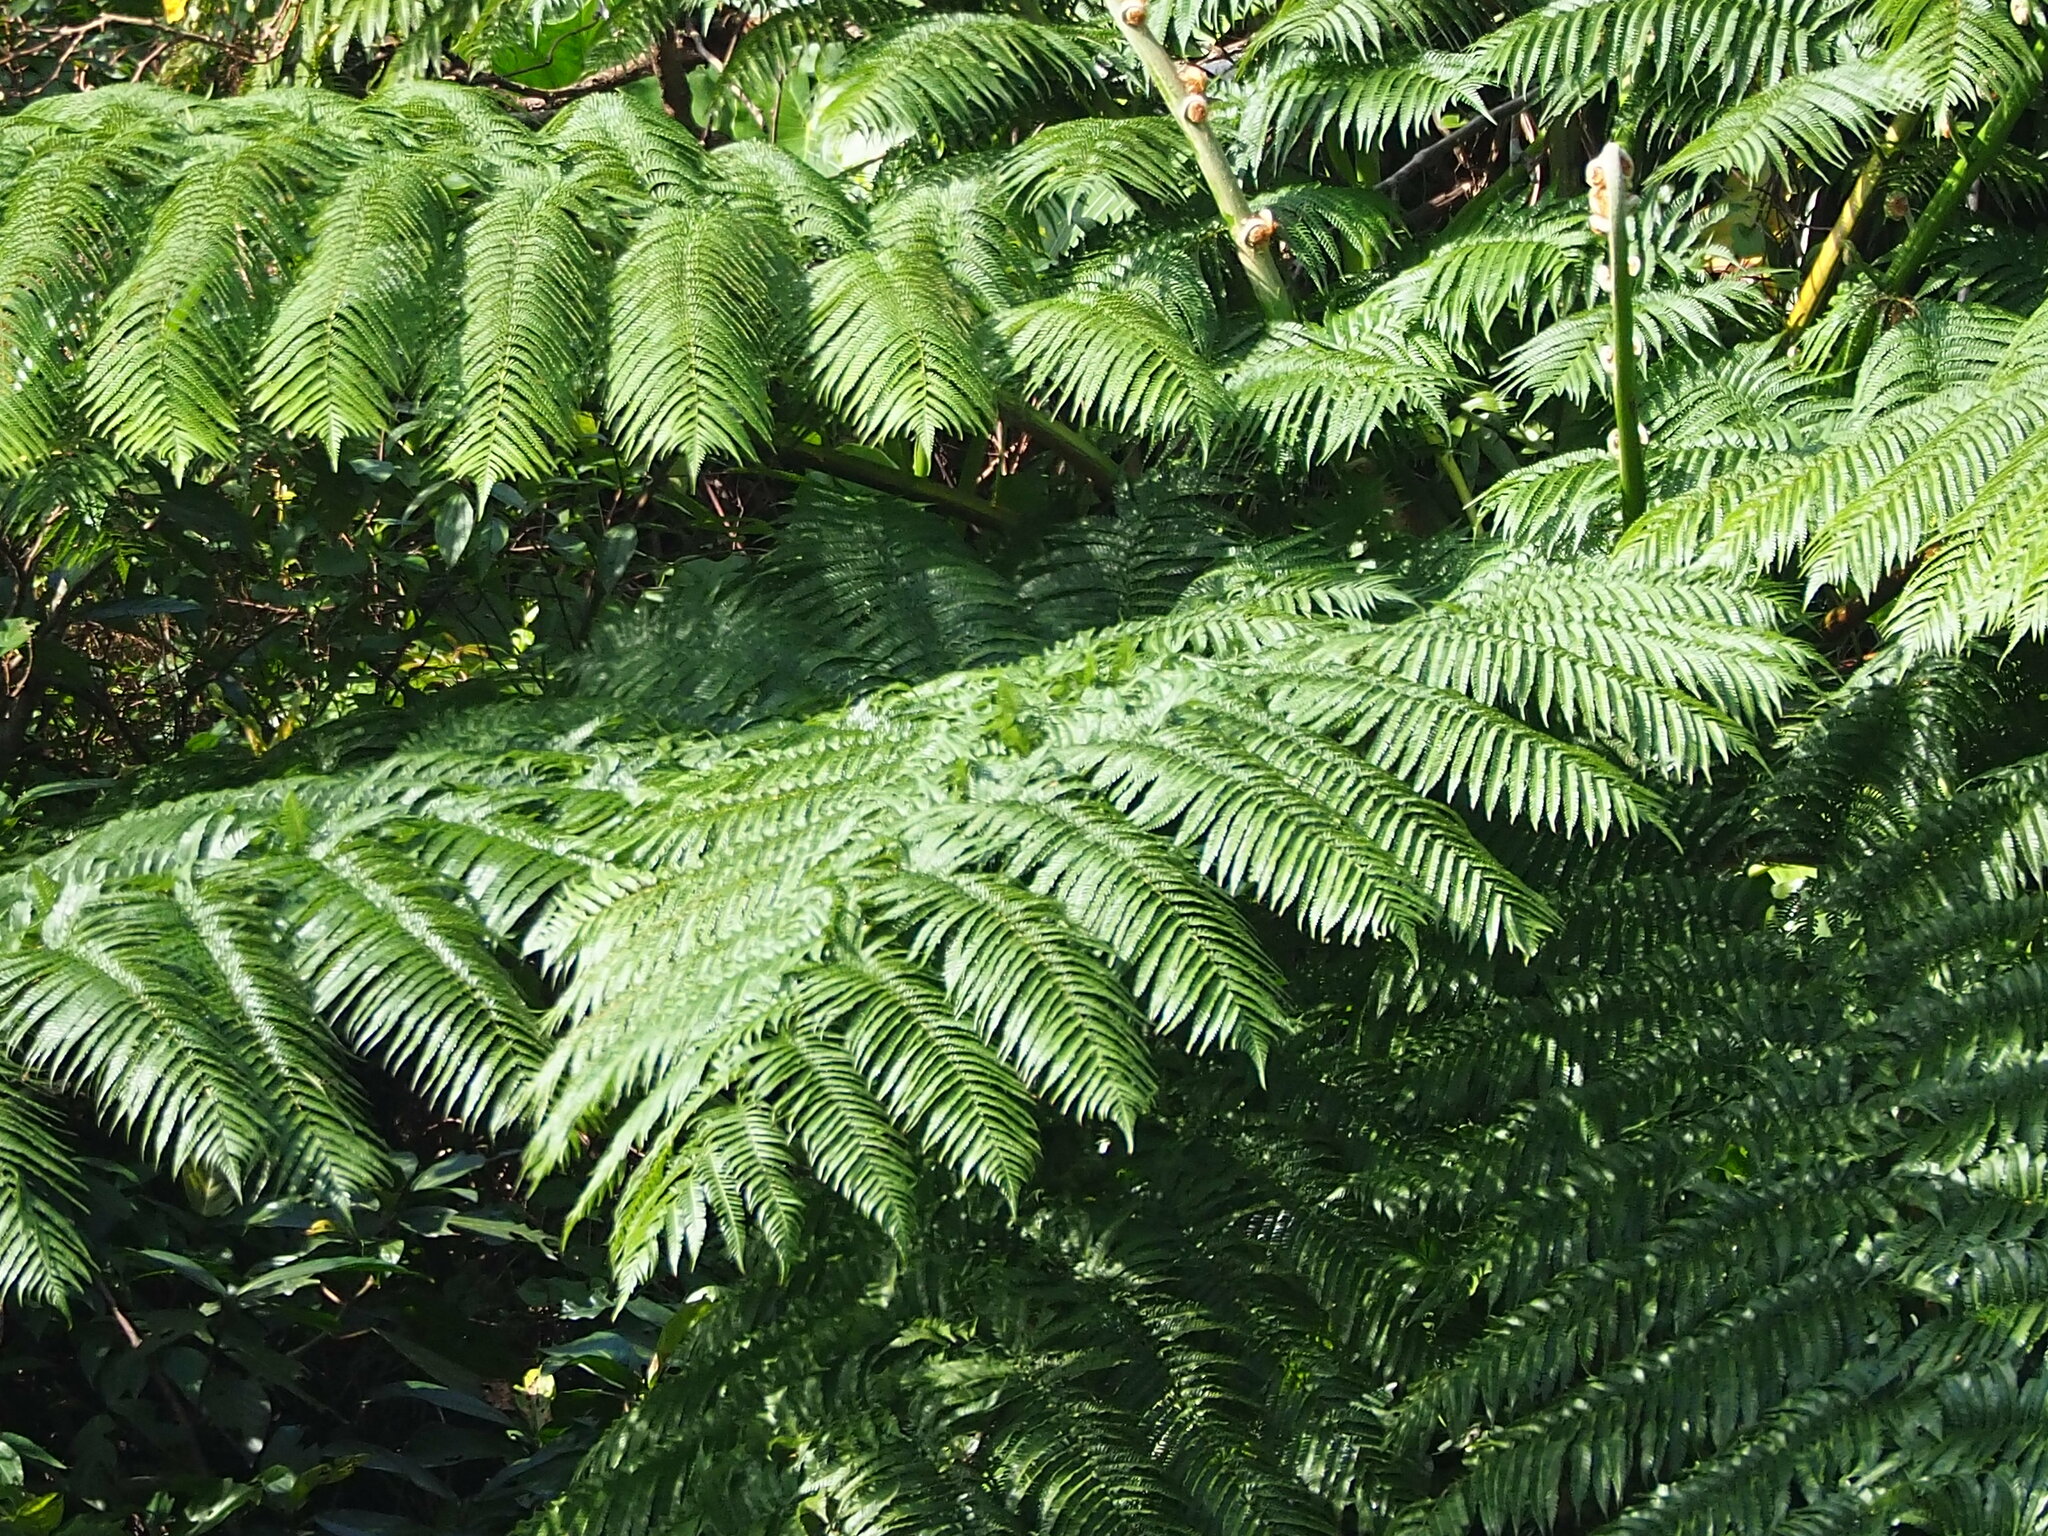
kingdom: Plantae
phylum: Tracheophyta
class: Polypodiopsida
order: Cyatheales
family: Cyatheaceae
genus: Alsophila
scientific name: Alsophila lepifera
